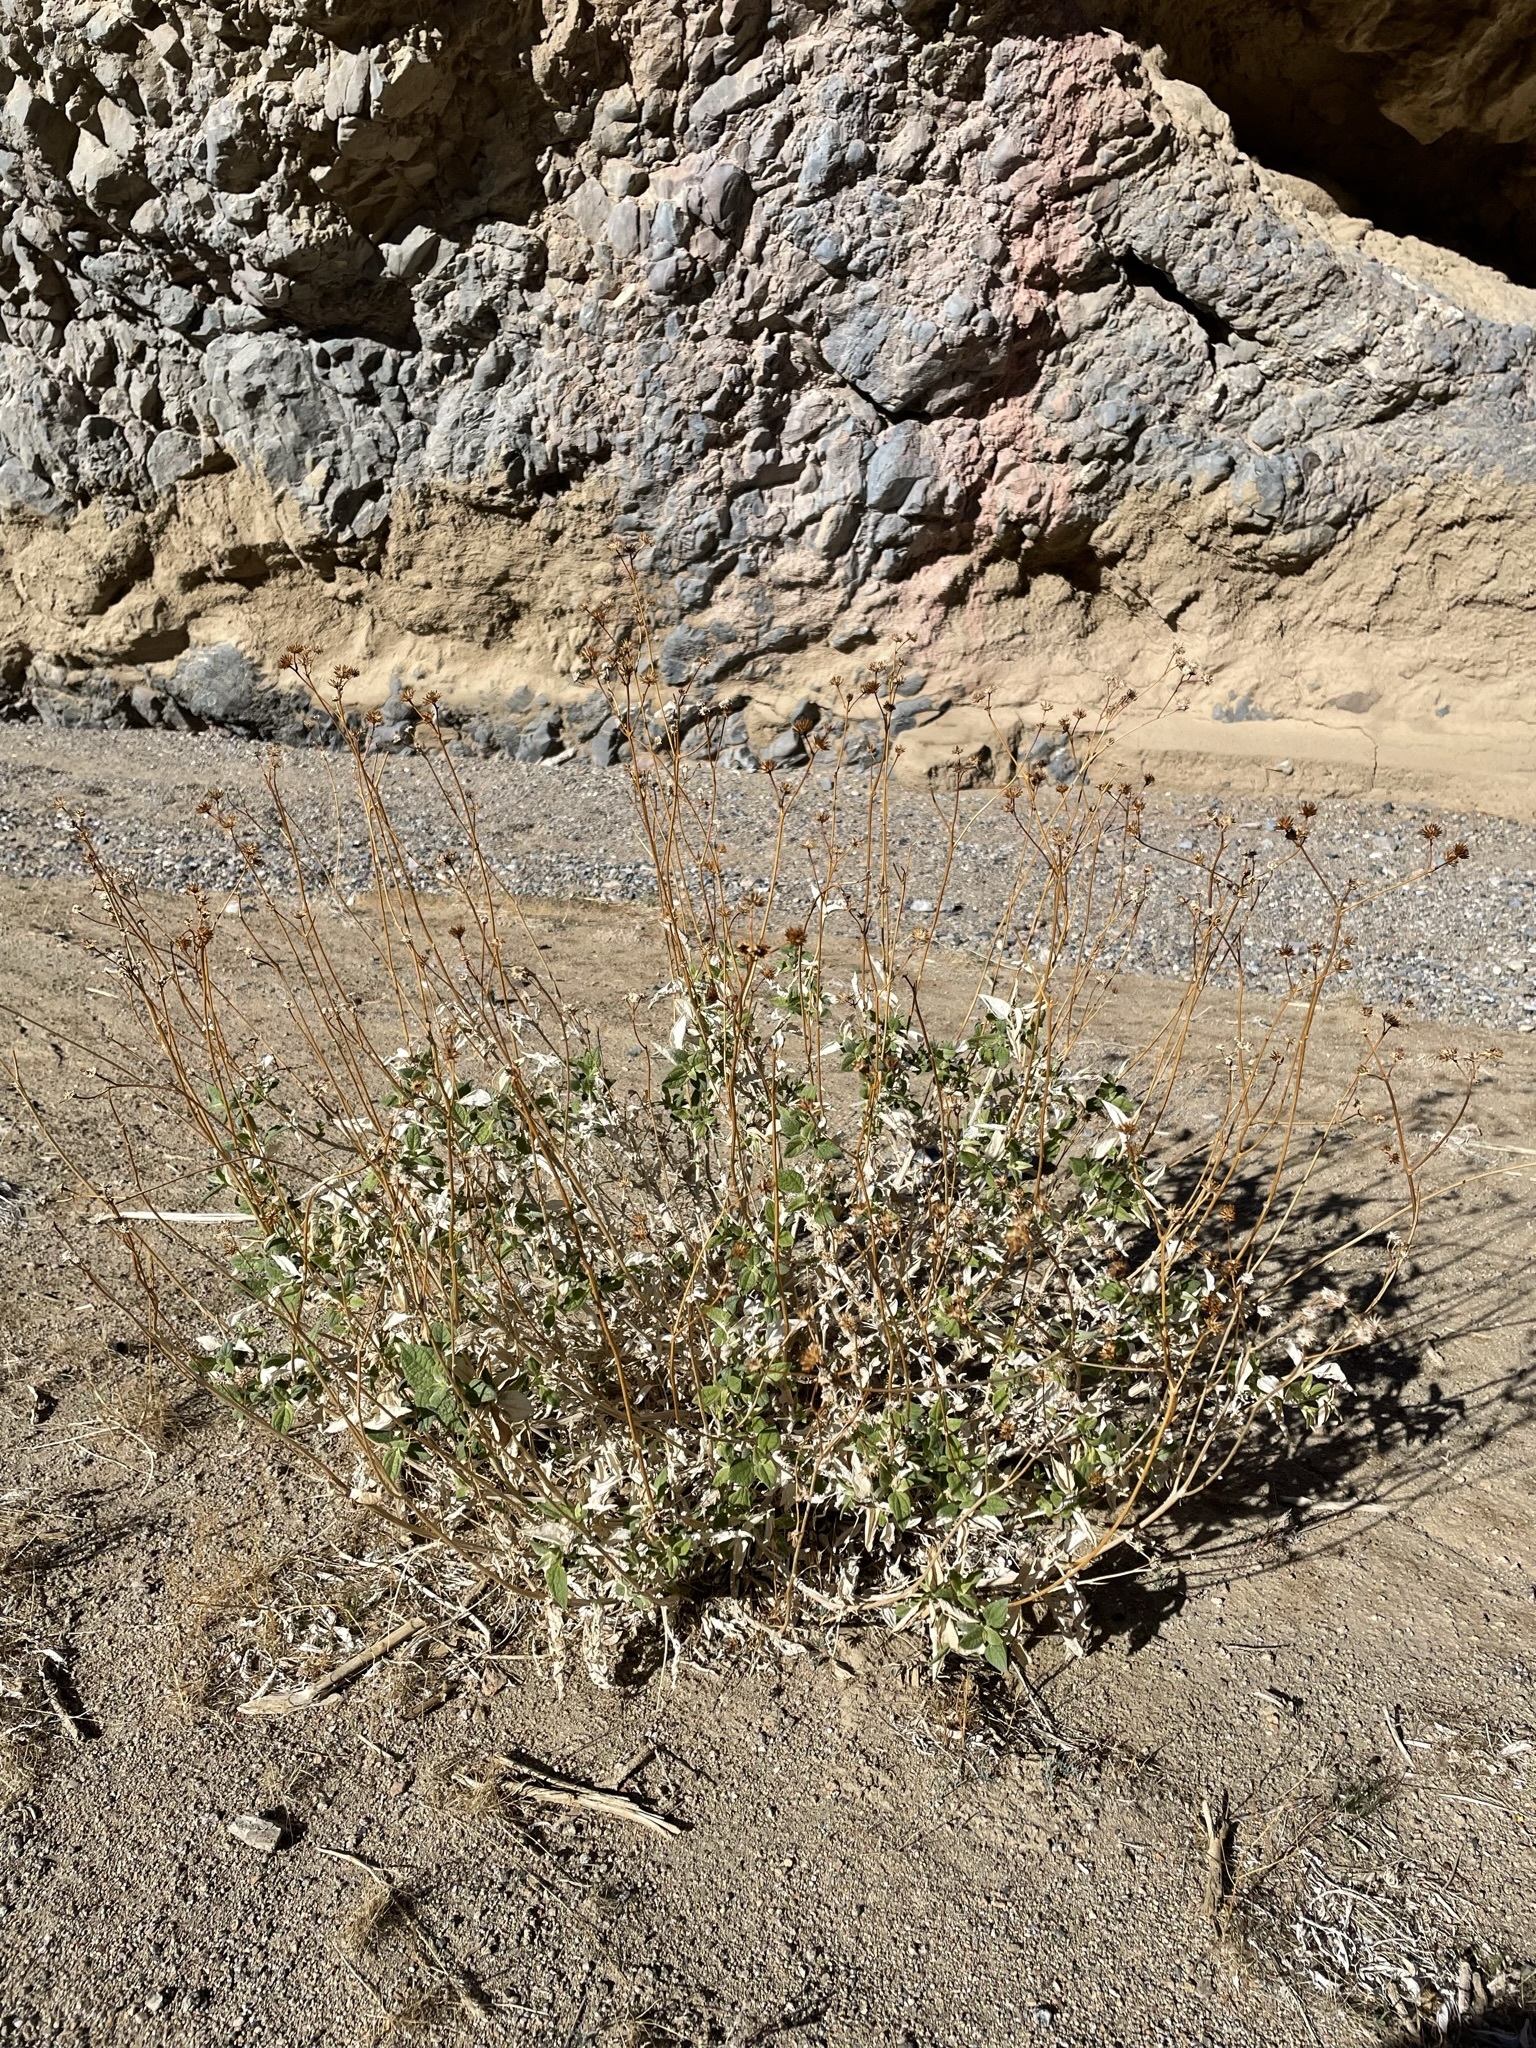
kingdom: Plantae
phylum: Tracheophyta
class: Magnoliopsida
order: Asterales
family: Asteraceae
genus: Bahiopsis
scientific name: Bahiopsis reticulata
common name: Death valley goldeneye
